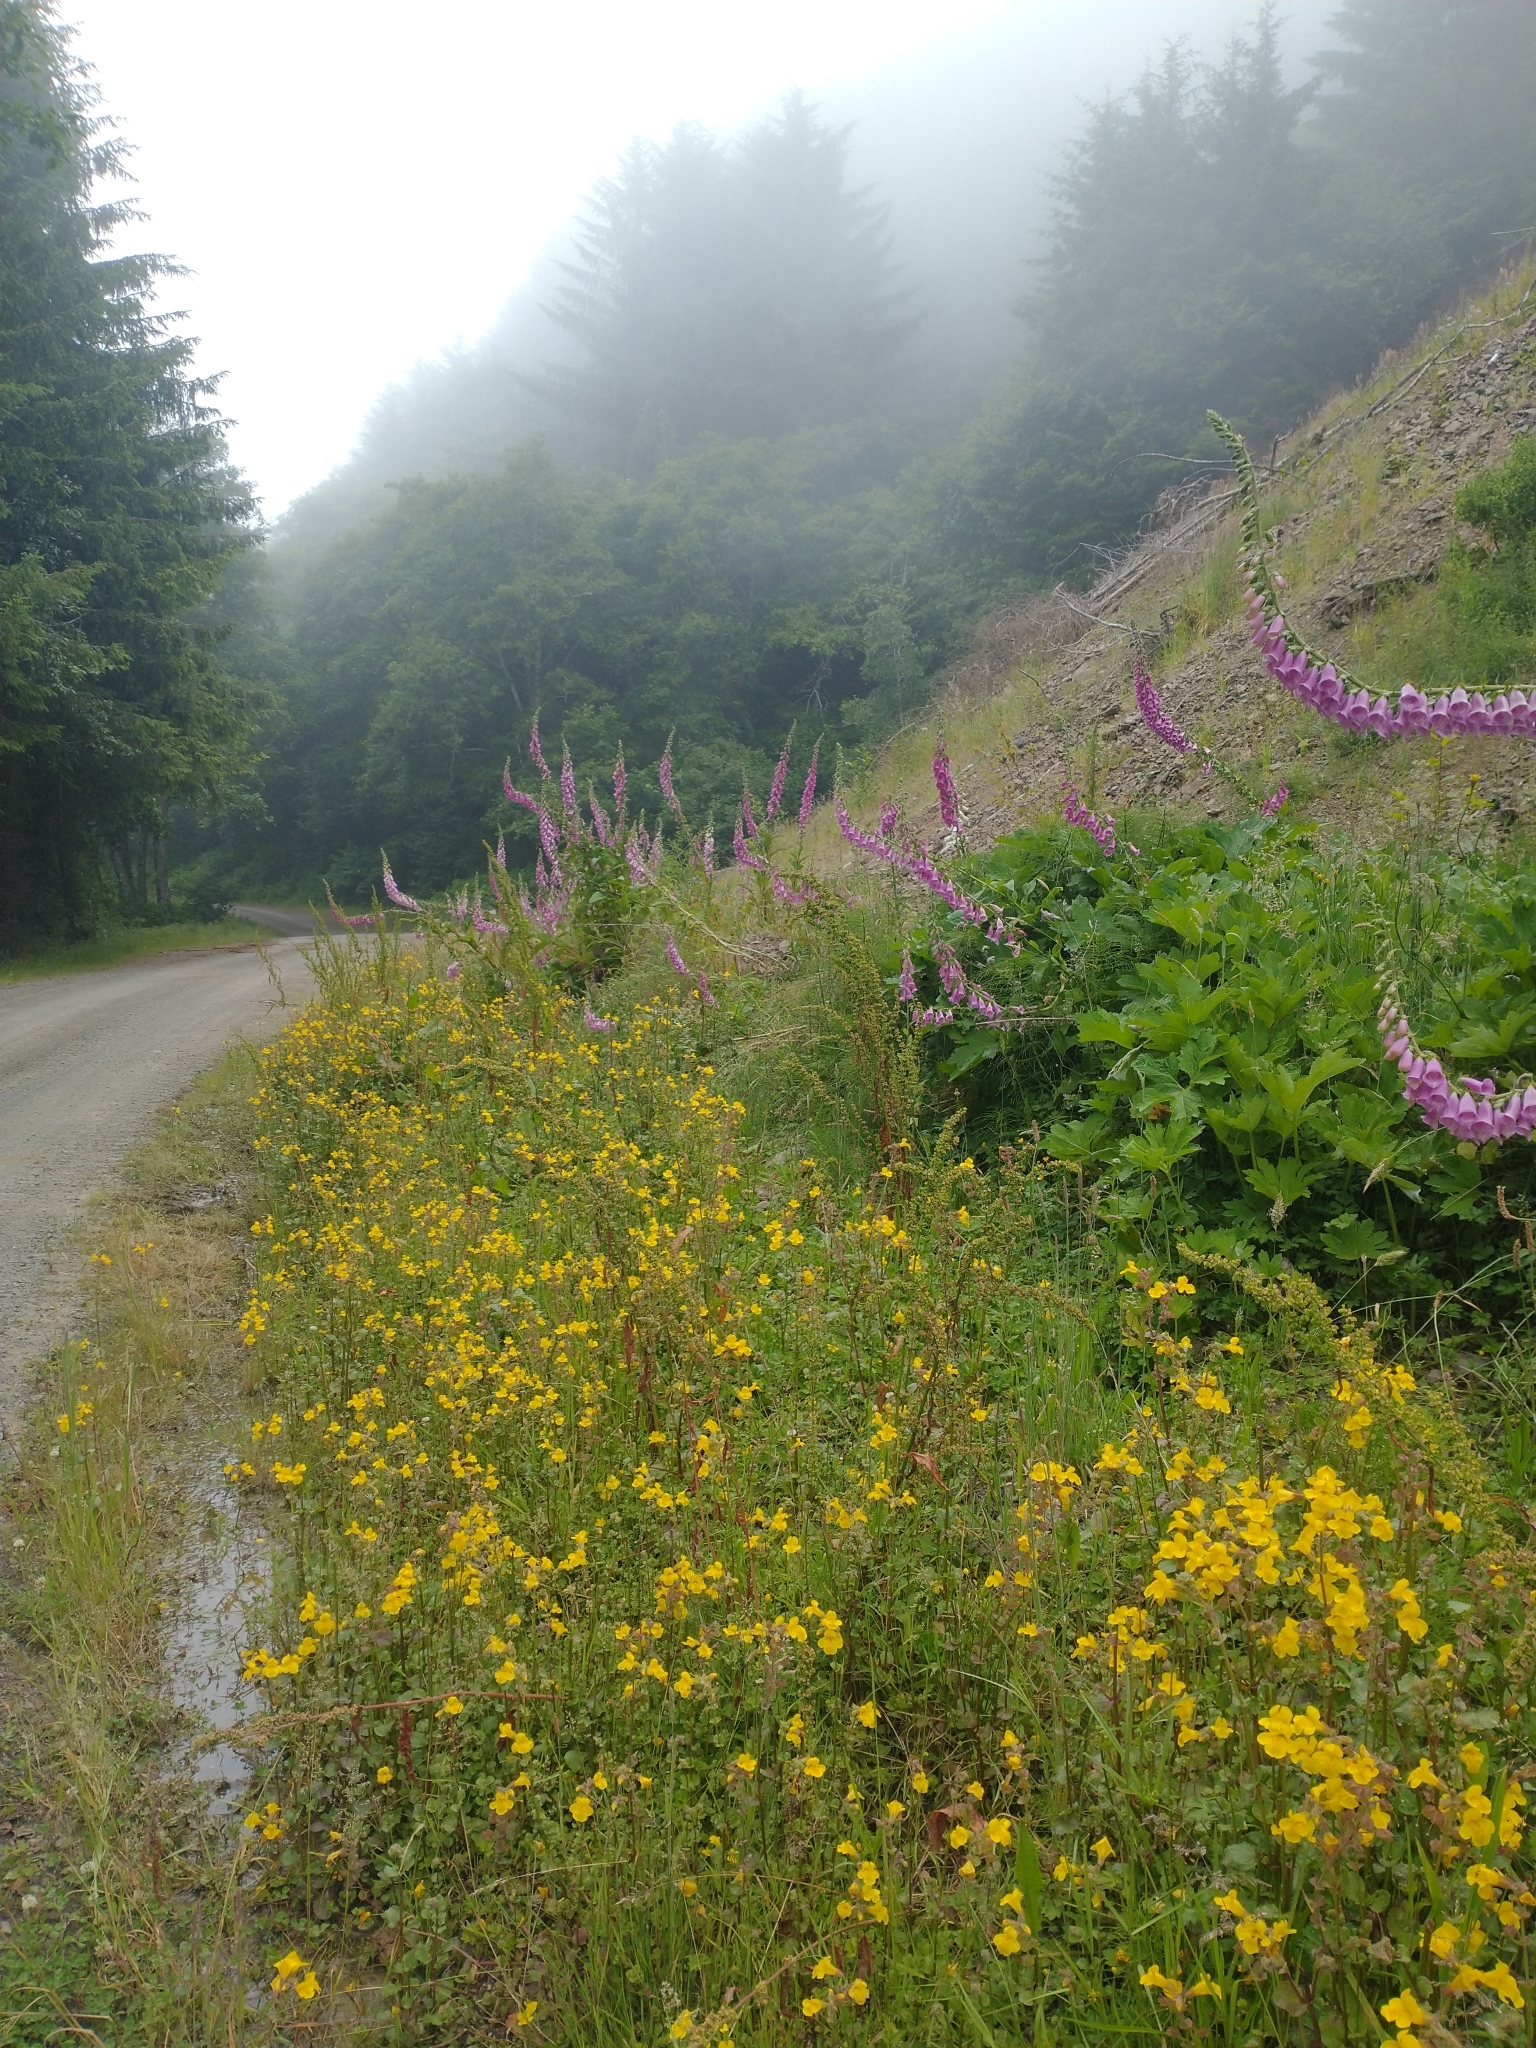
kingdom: Plantae
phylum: Tracheophyta
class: Magnoliopsida
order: Lamiales
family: Plantaginaceae
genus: Digitalis
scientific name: Digitalis purpurea
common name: Foxglove
